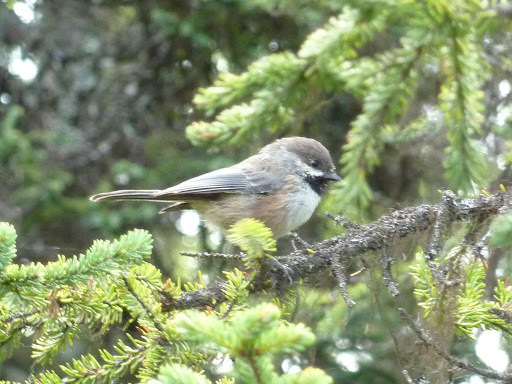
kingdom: Animalia
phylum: Chordata
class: Aves
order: Passeriformes
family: Paridae
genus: Poecile
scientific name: Poecile hudsonicus
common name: Boreal chickadee
